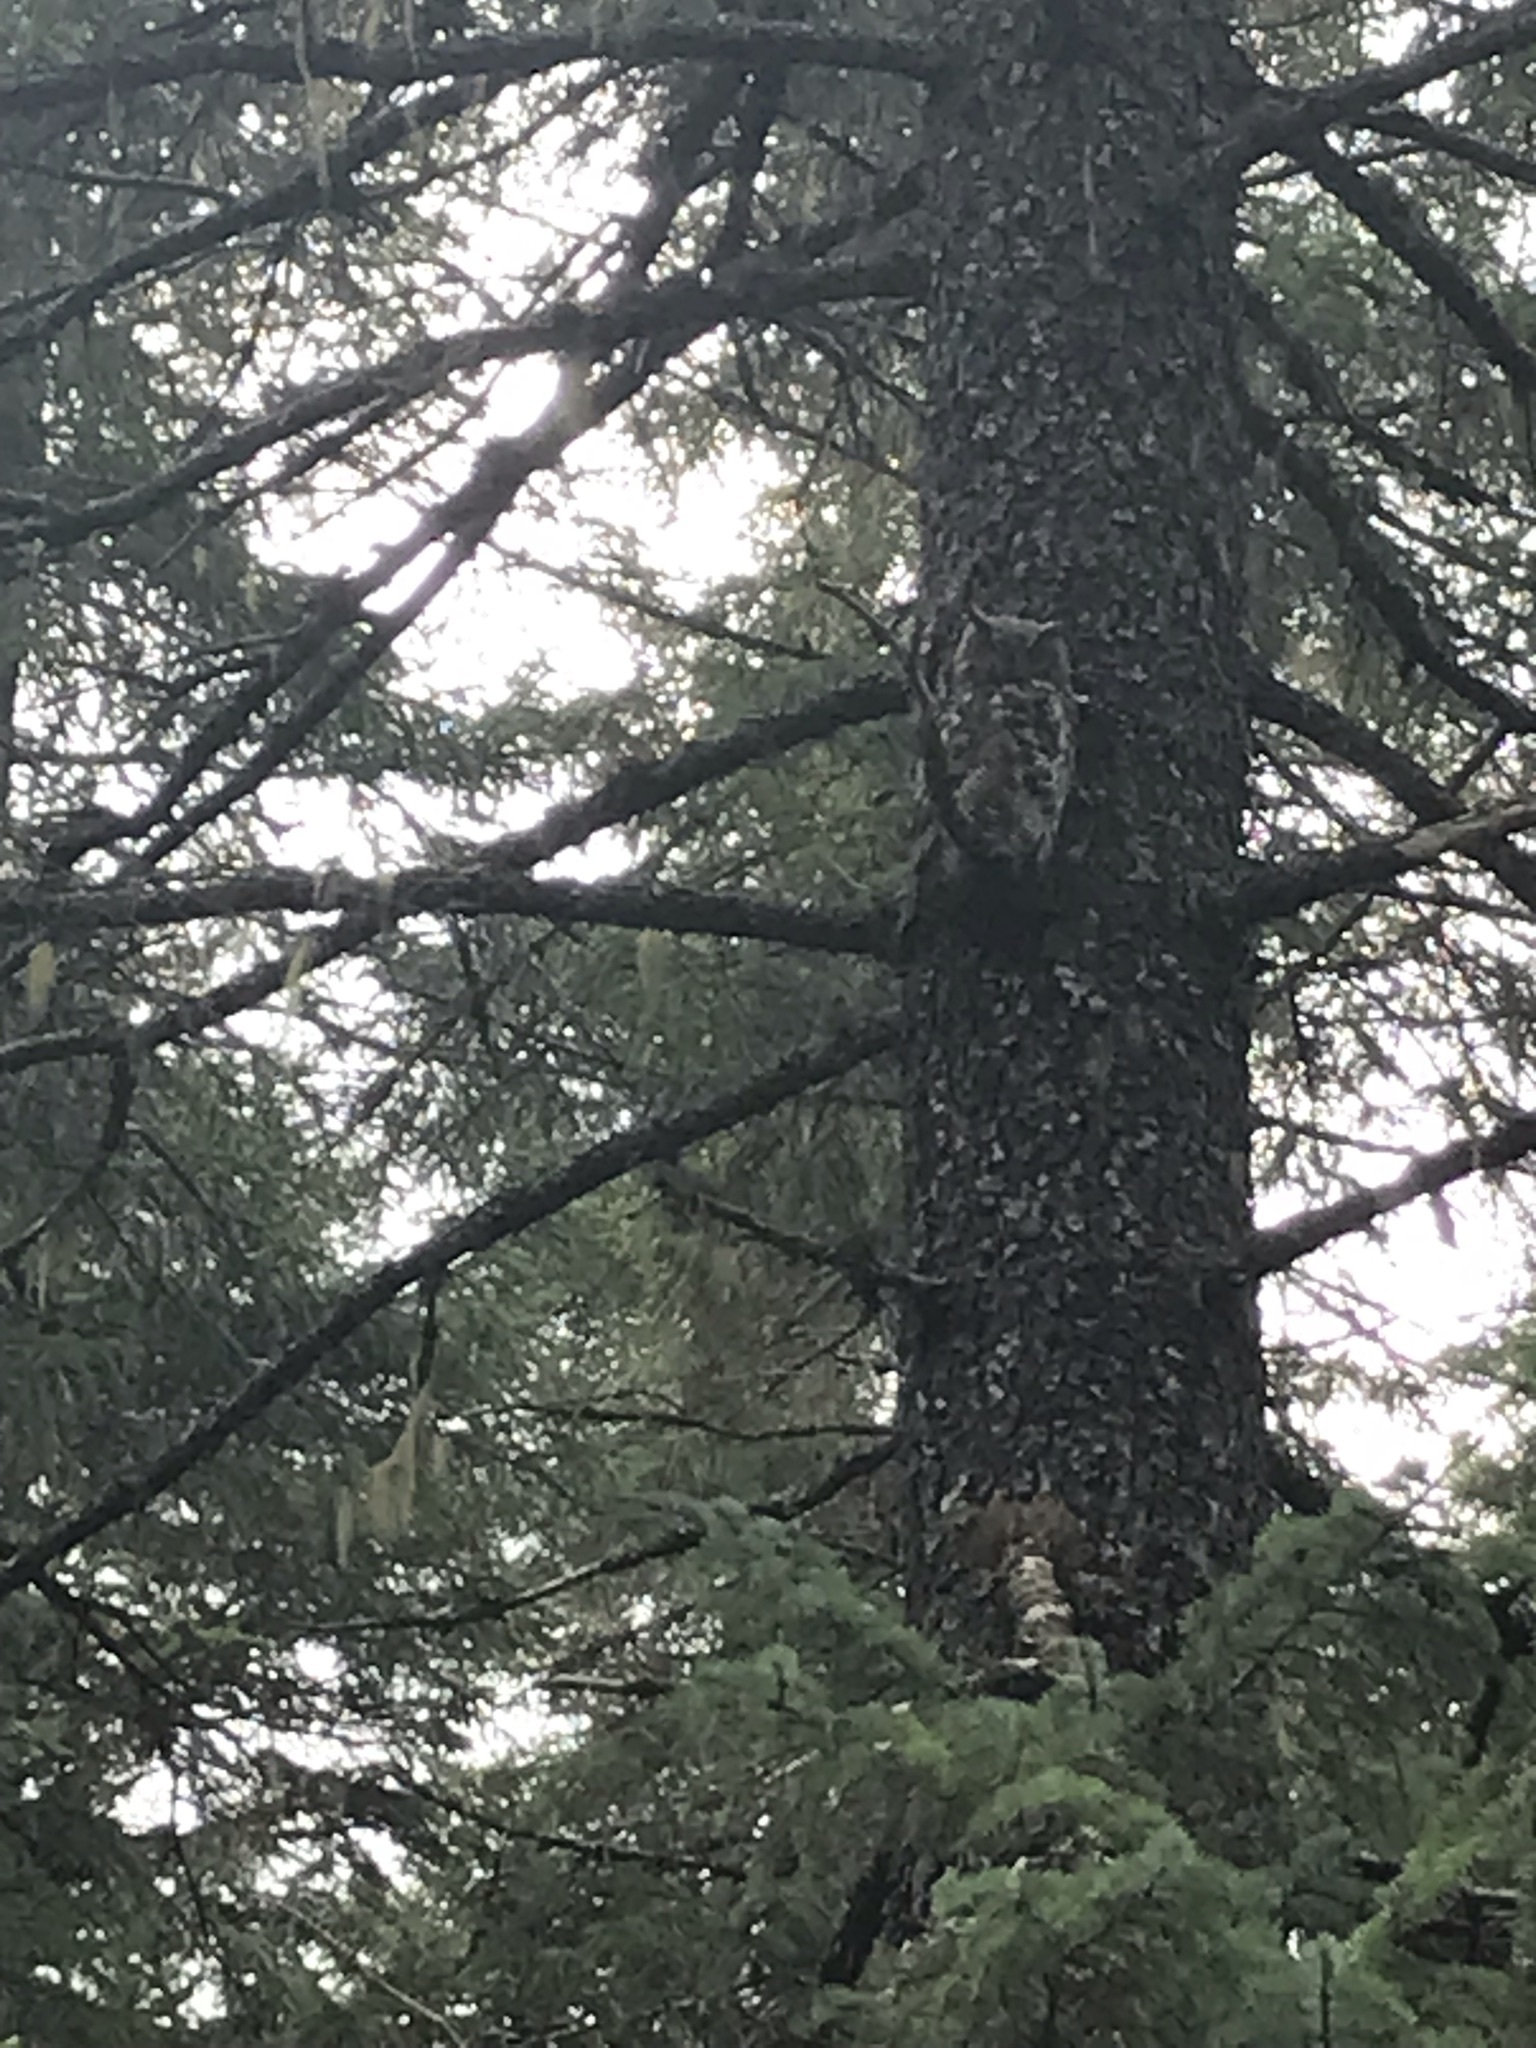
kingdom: Animalia
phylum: Chordata
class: Aves
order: Strigiformes
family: Strigidae
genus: Bubo
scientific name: Bubo virginianus
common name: Great horned owl
